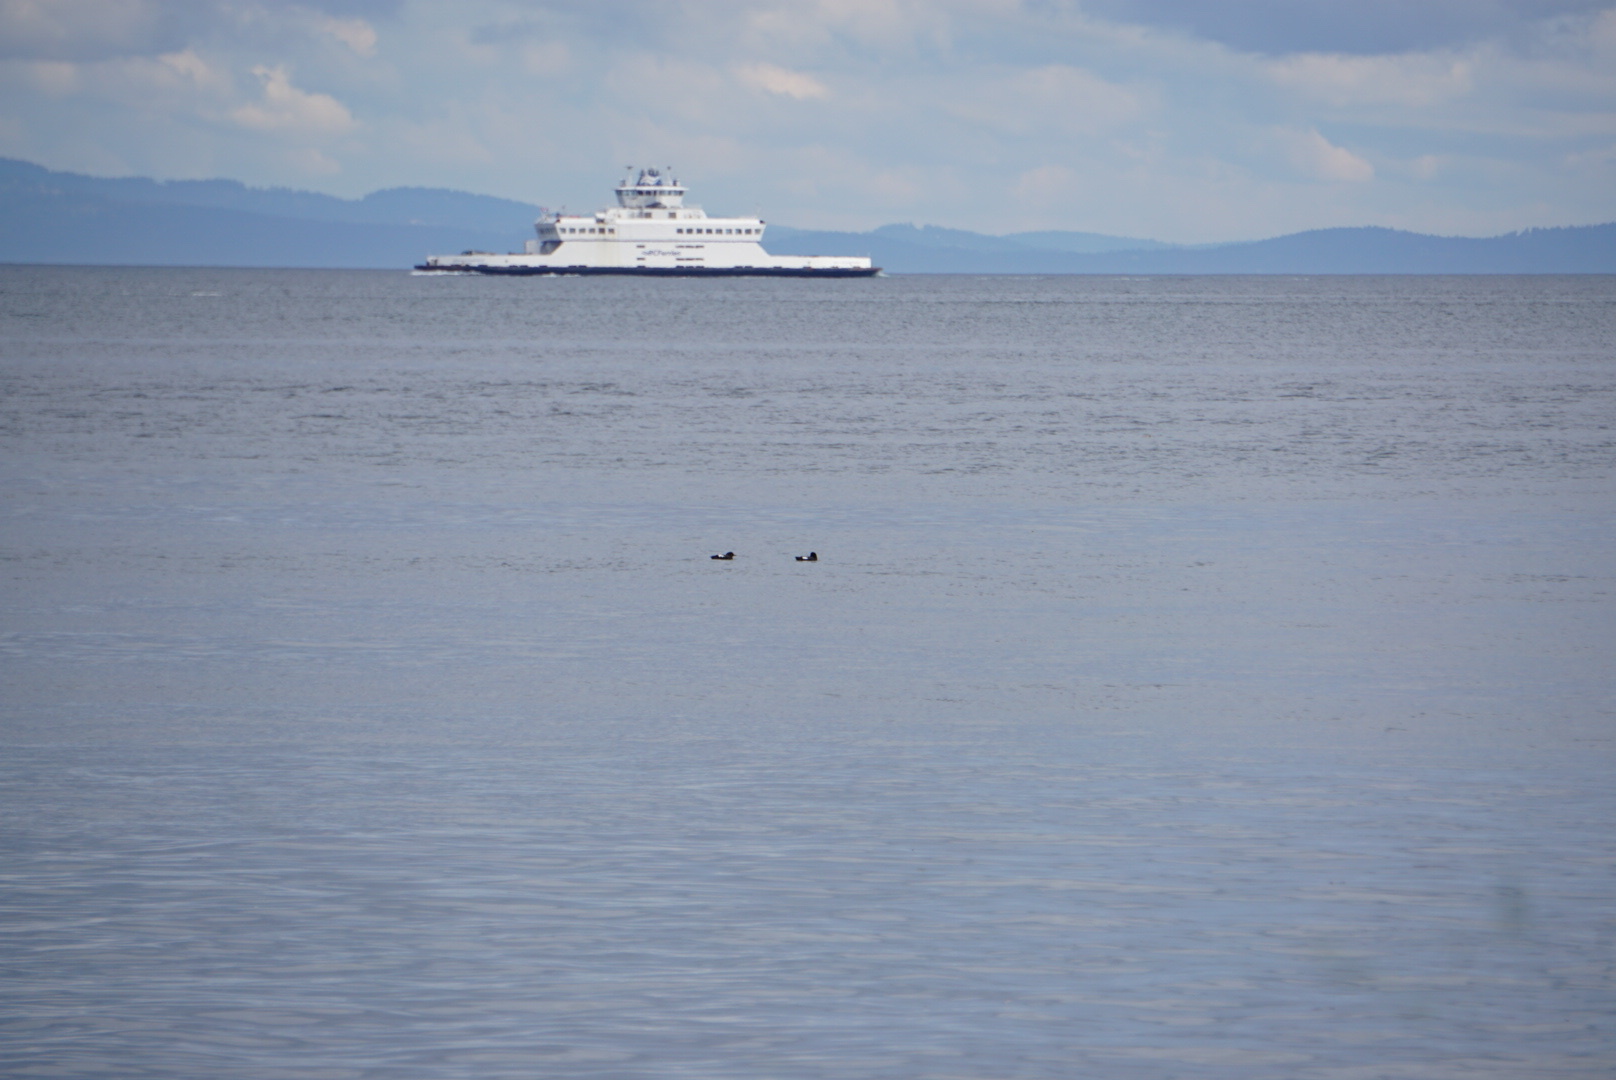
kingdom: Animalia
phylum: Chordata
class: Aves
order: Charadriiformes
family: Alcidae
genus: Cepphus
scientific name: Cepphus columba
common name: Pigeon guillemot
